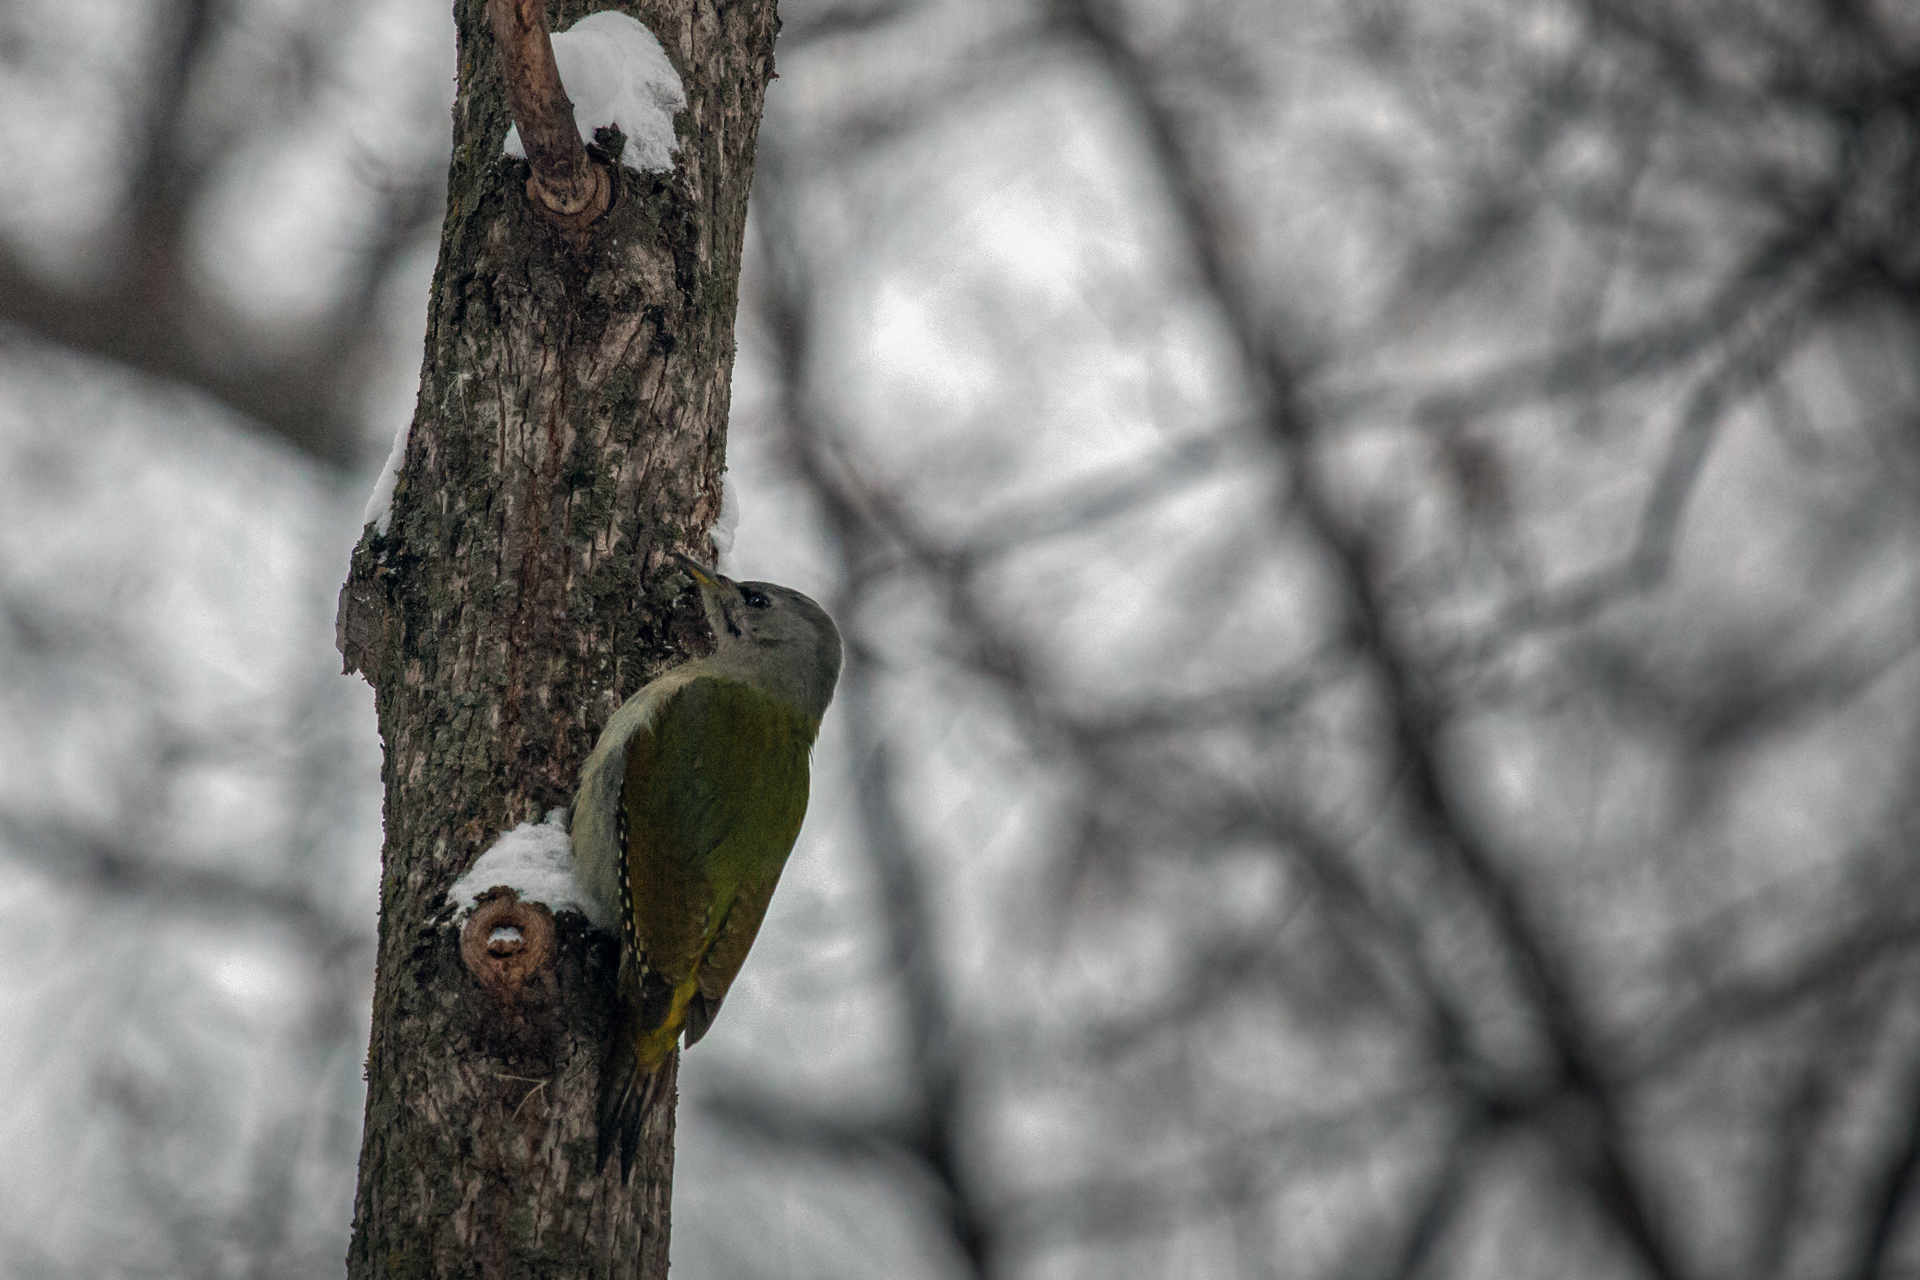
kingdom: Animalia
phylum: Chordata
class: Aves
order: Piciformes
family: Picidae
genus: Picus
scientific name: Picus canus
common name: Grey-headed woodpecker
